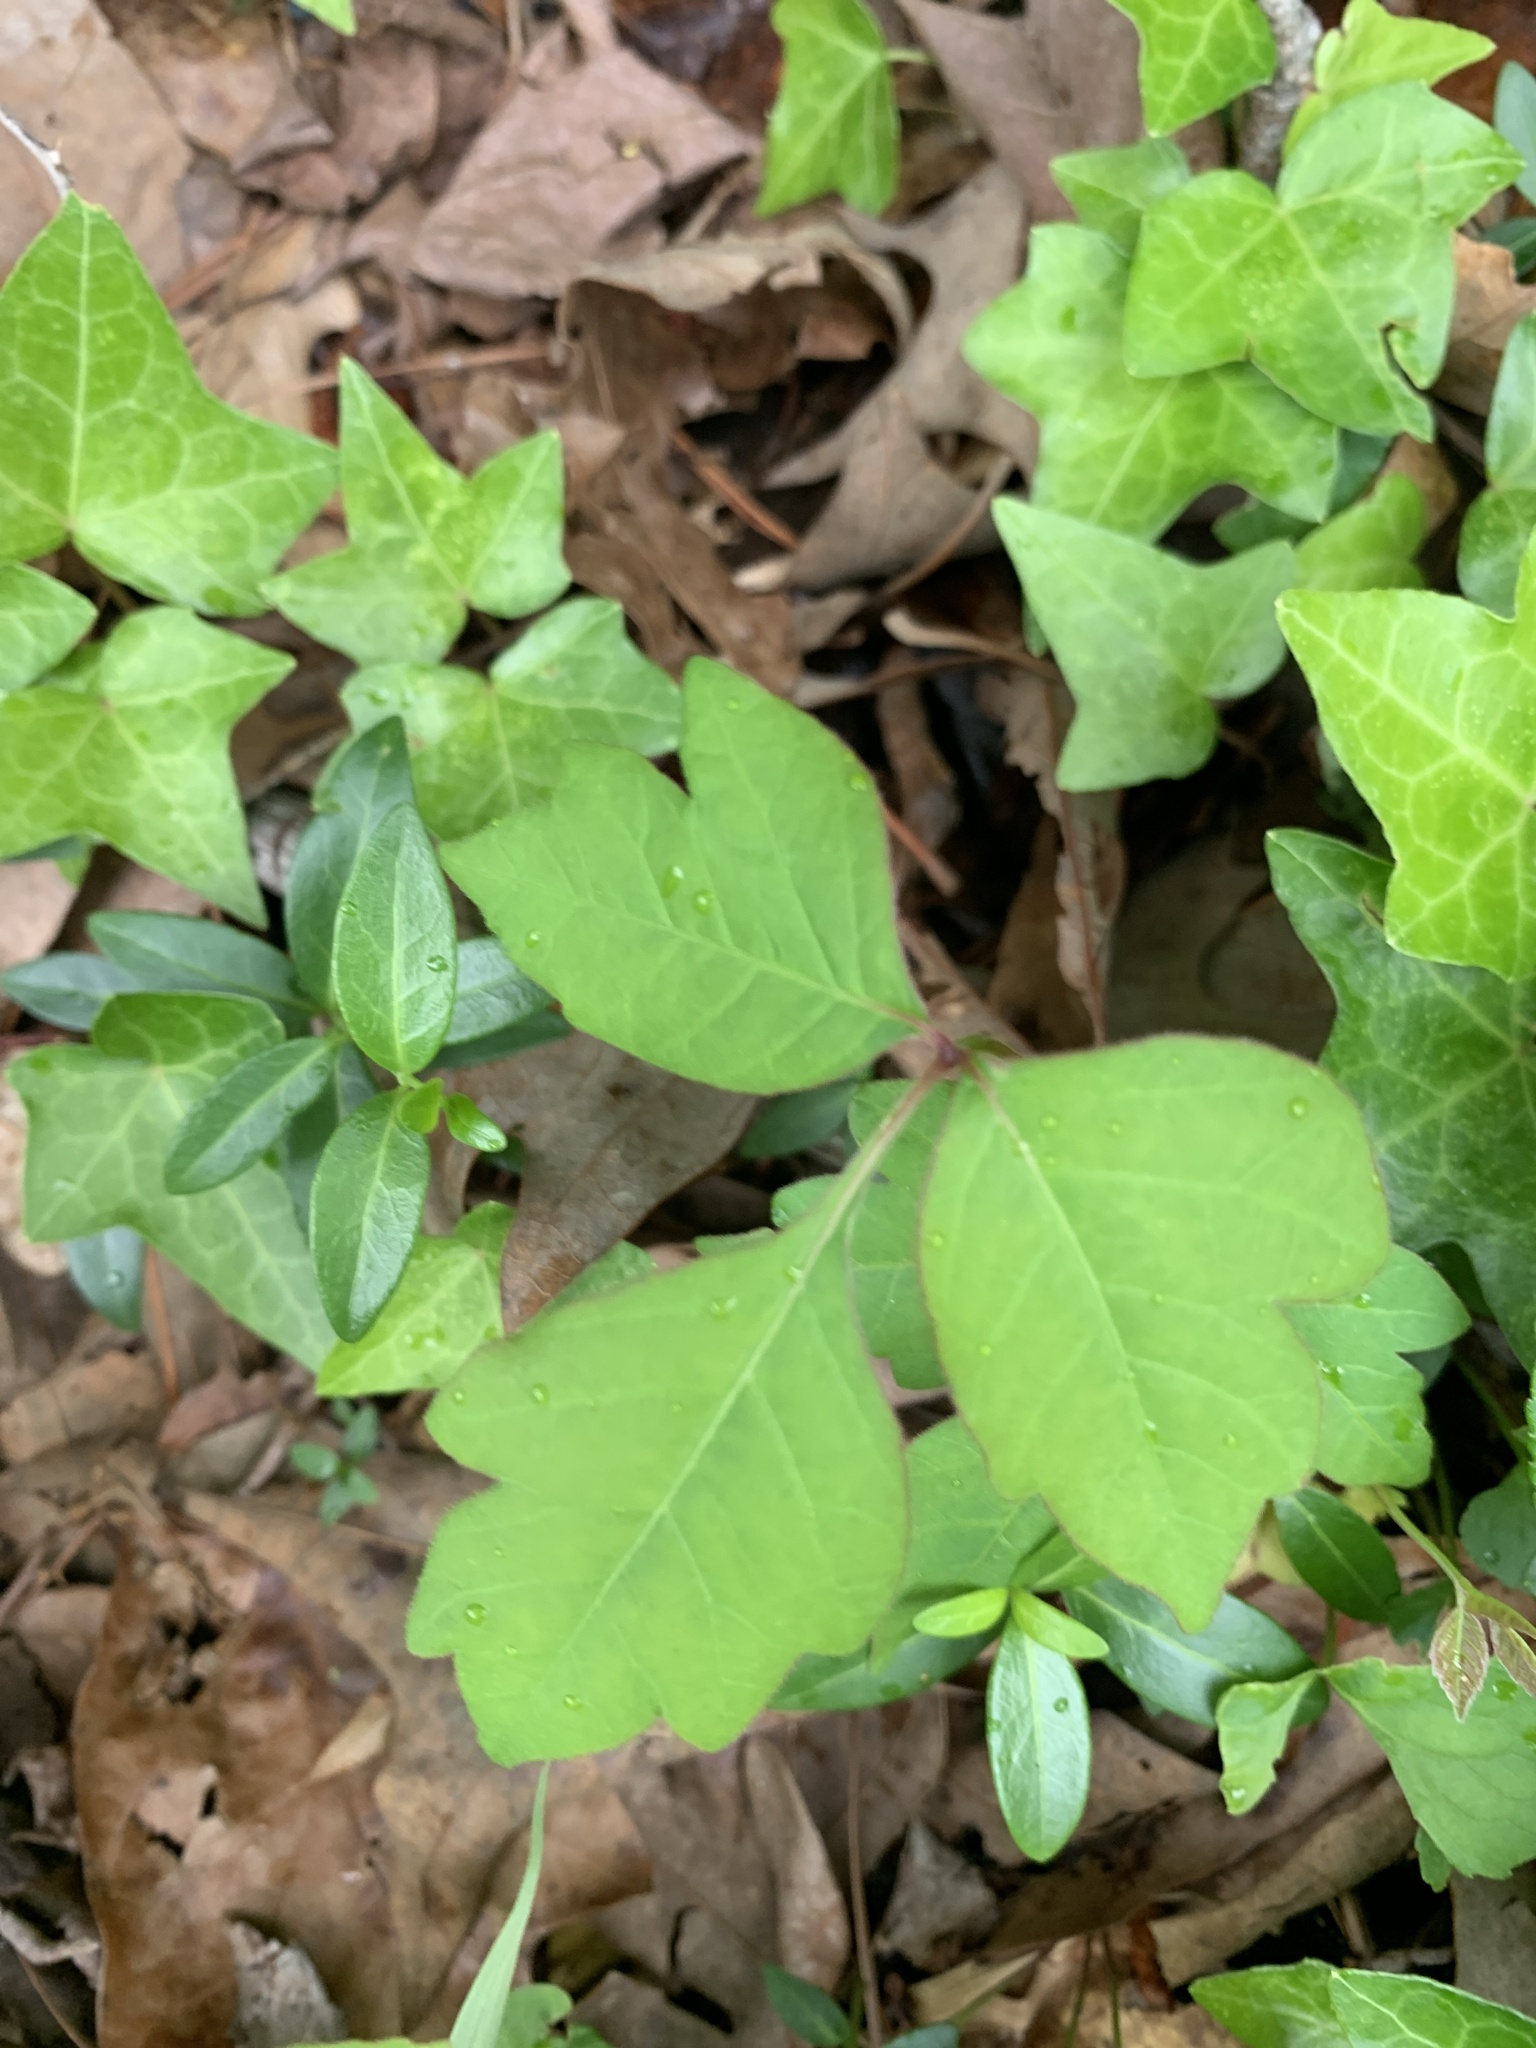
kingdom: Plantae
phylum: Tracheophyta
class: Magnoliopsida
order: Sapindales
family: Anacardiaceae
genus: Toxicodendron
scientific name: Toxicodendron radicans
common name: Poison ivy
